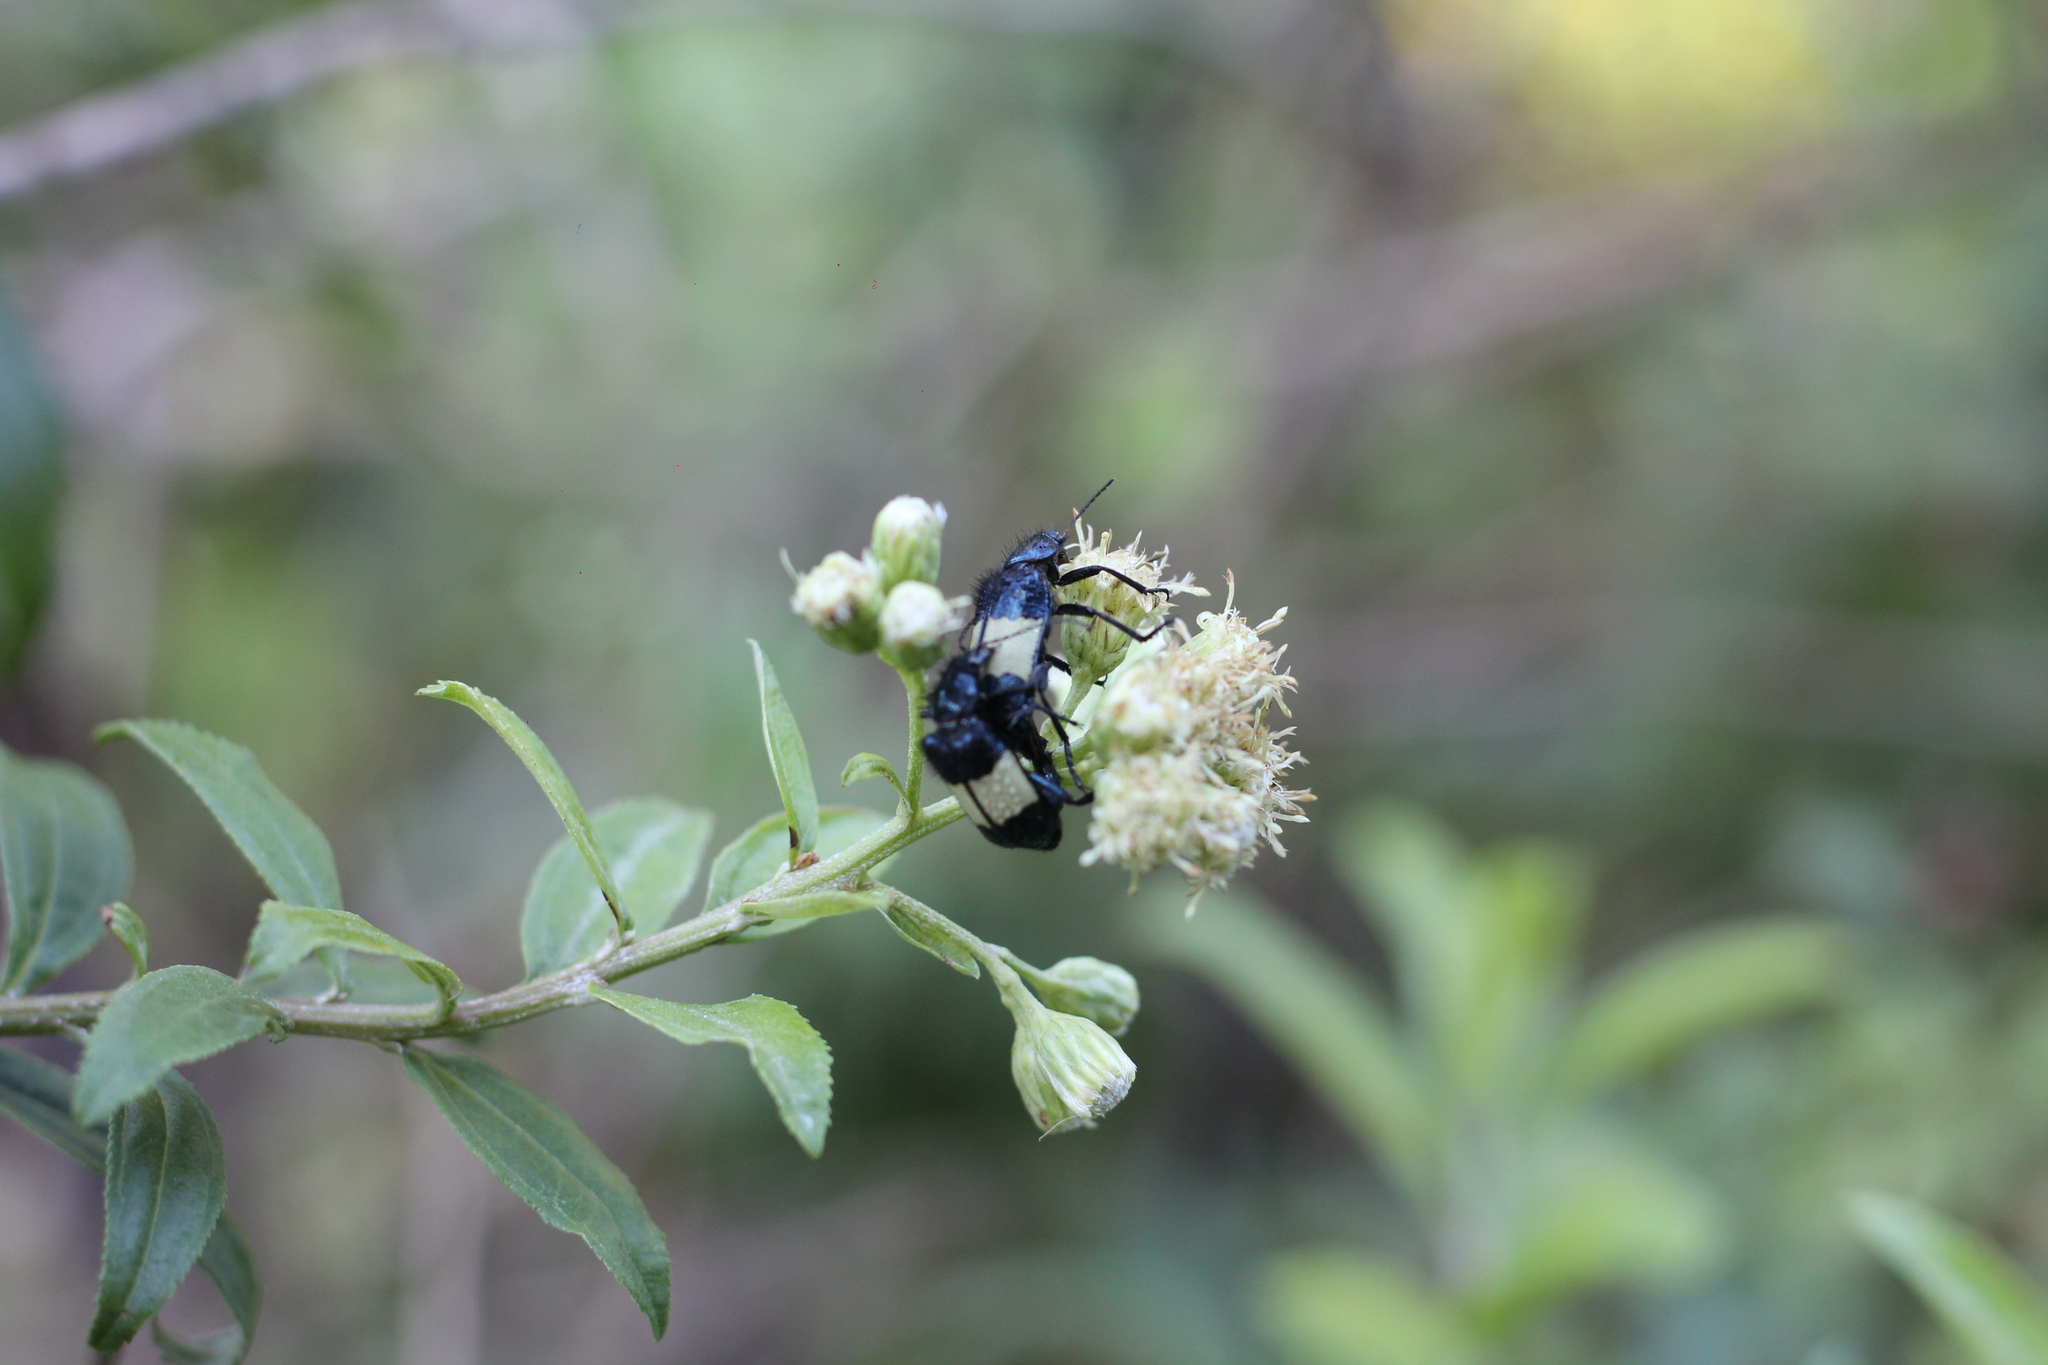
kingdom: Animalia
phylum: Arthropoda
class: Insecta
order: Coleoptera
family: Melyridae
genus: Astylus
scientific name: Astylus
